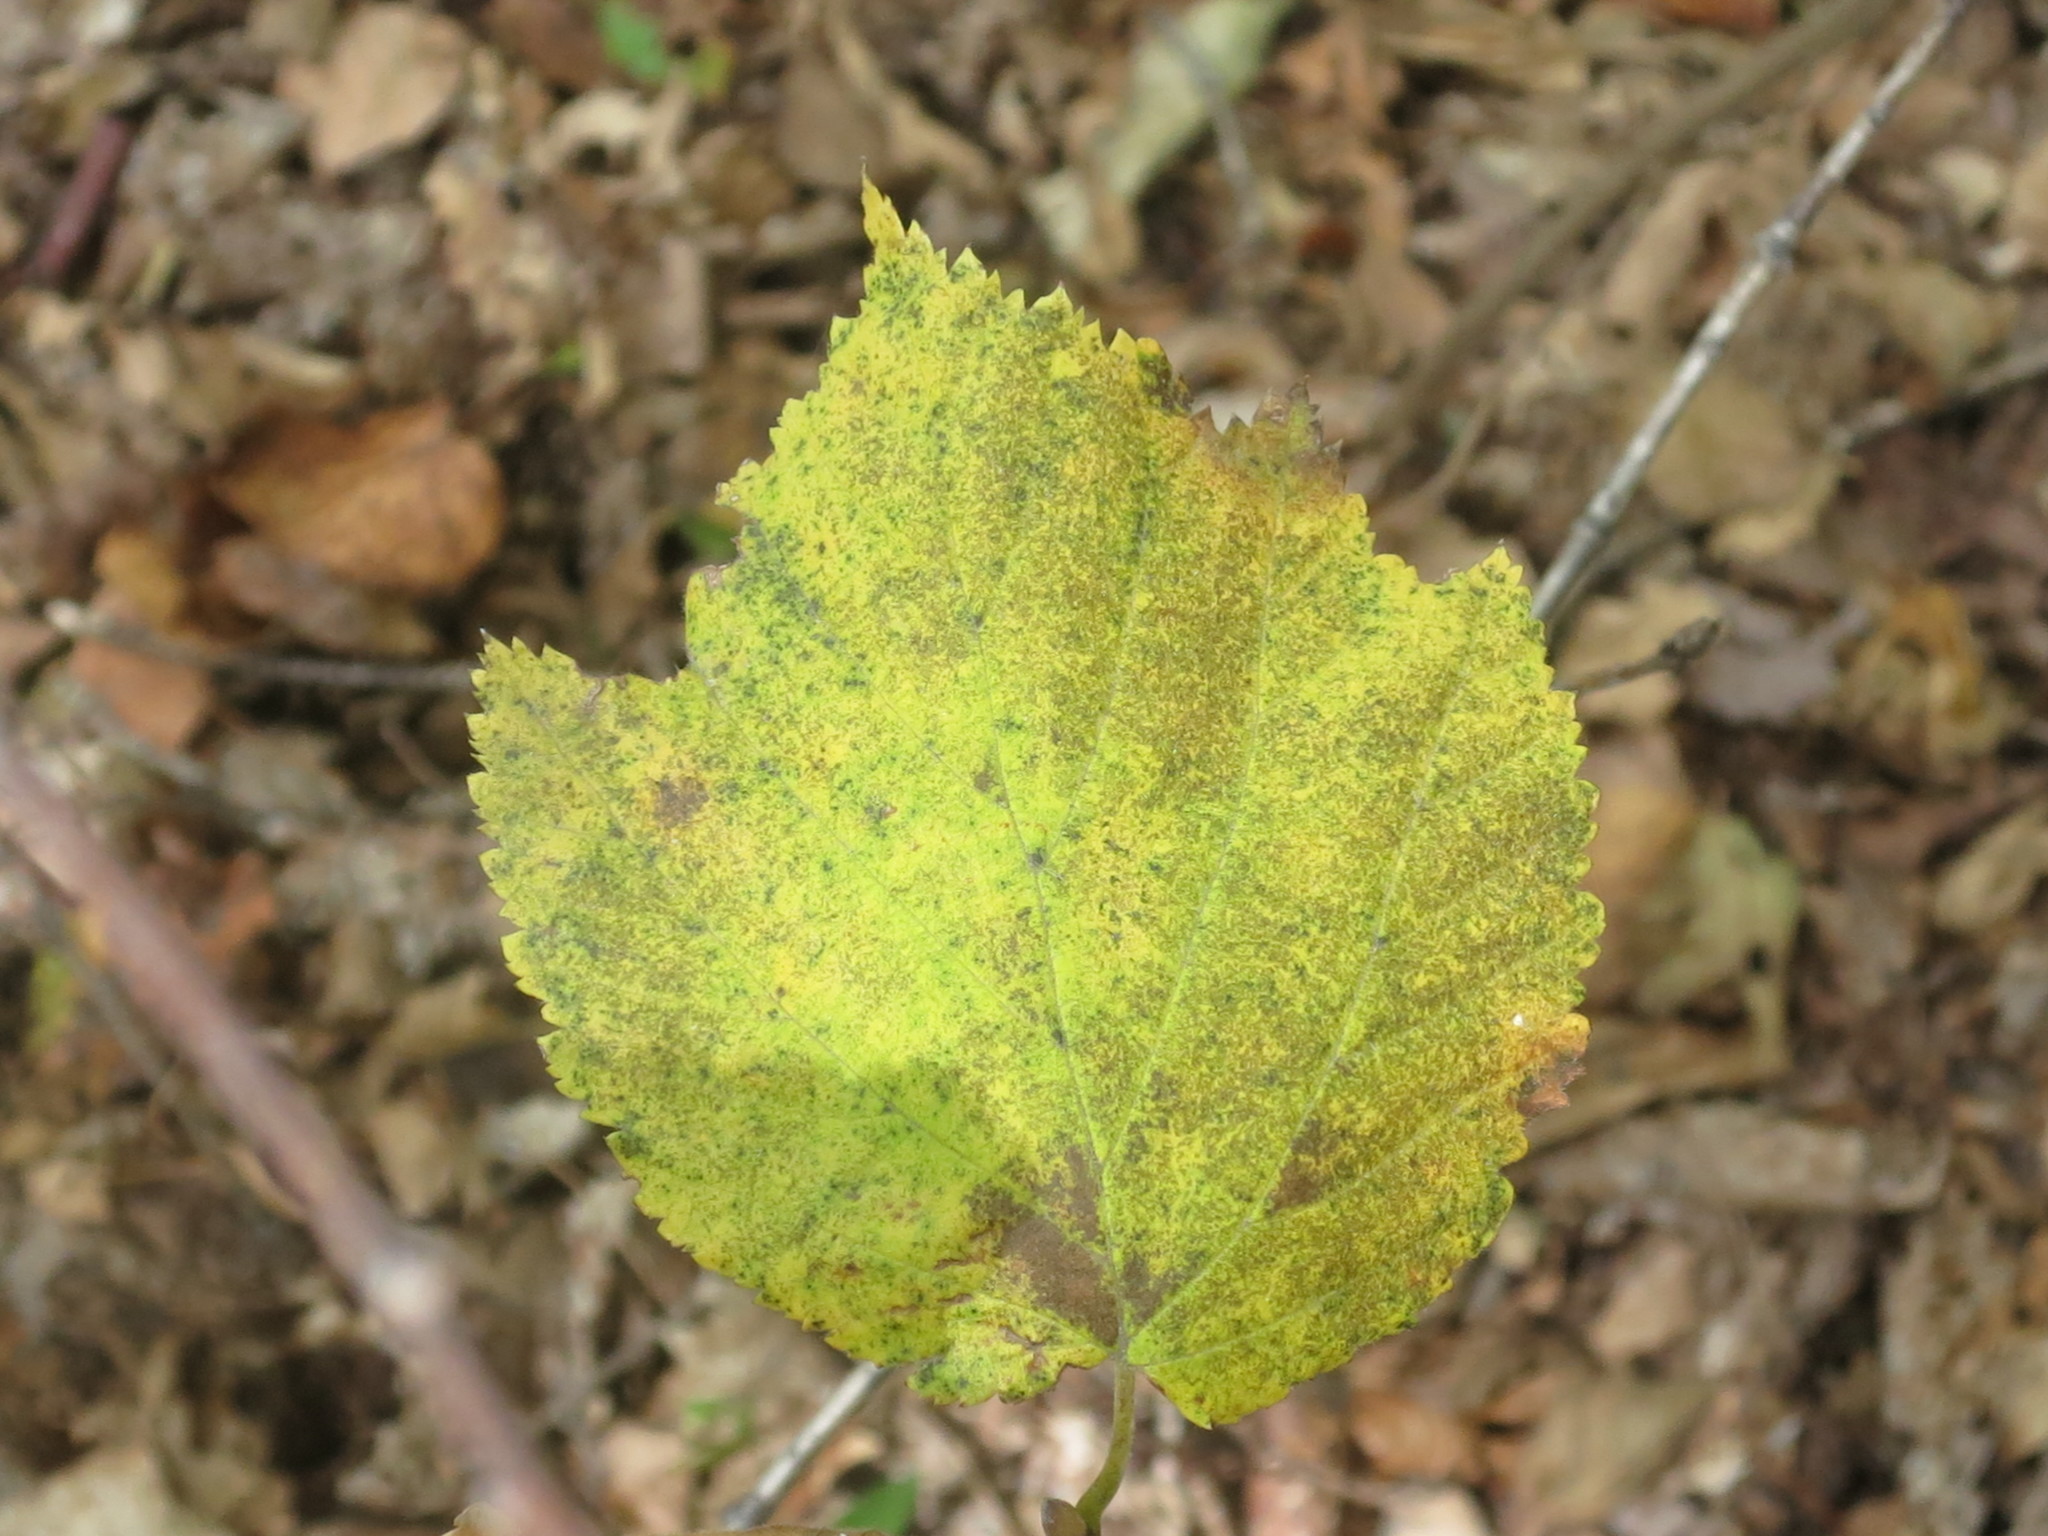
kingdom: Plantae
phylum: Tracheophyta
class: Magnoliopsida
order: Fagales
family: Betulaceae
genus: Corylus
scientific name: Corylus heterophylla
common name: Siberian hazelnut
